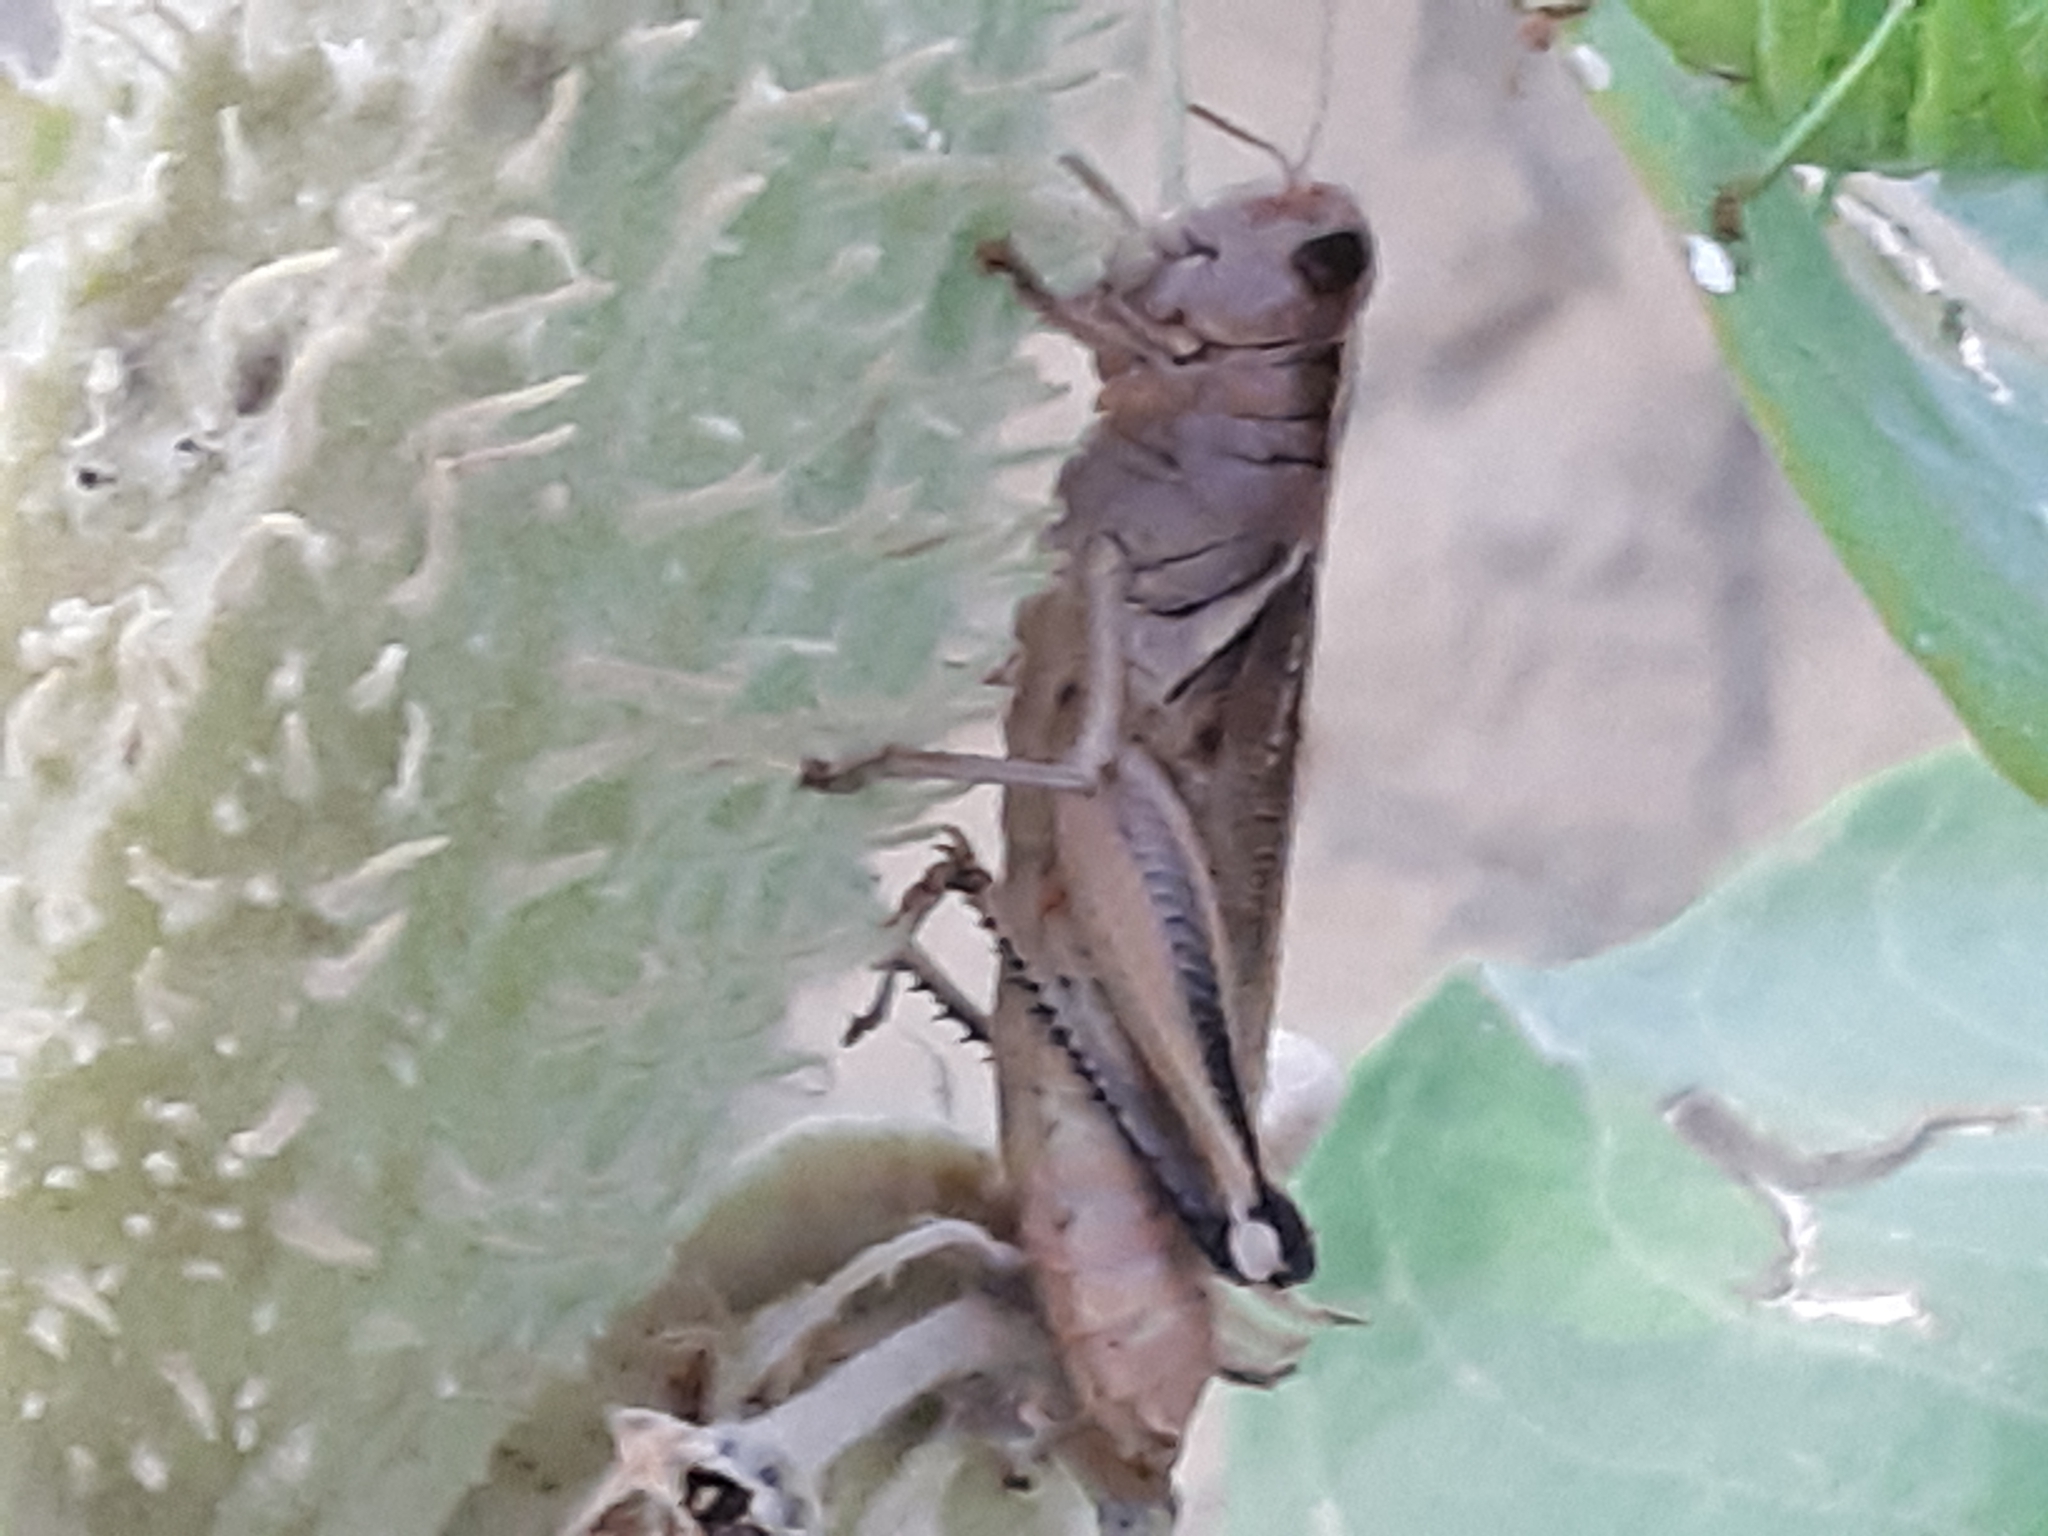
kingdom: Animalia
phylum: Arthropoda
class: Insecta
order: Orthoptera
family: Acrididae
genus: Melanoplus
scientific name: Melanoplus bivittatus
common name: Two-striped grasshopper
